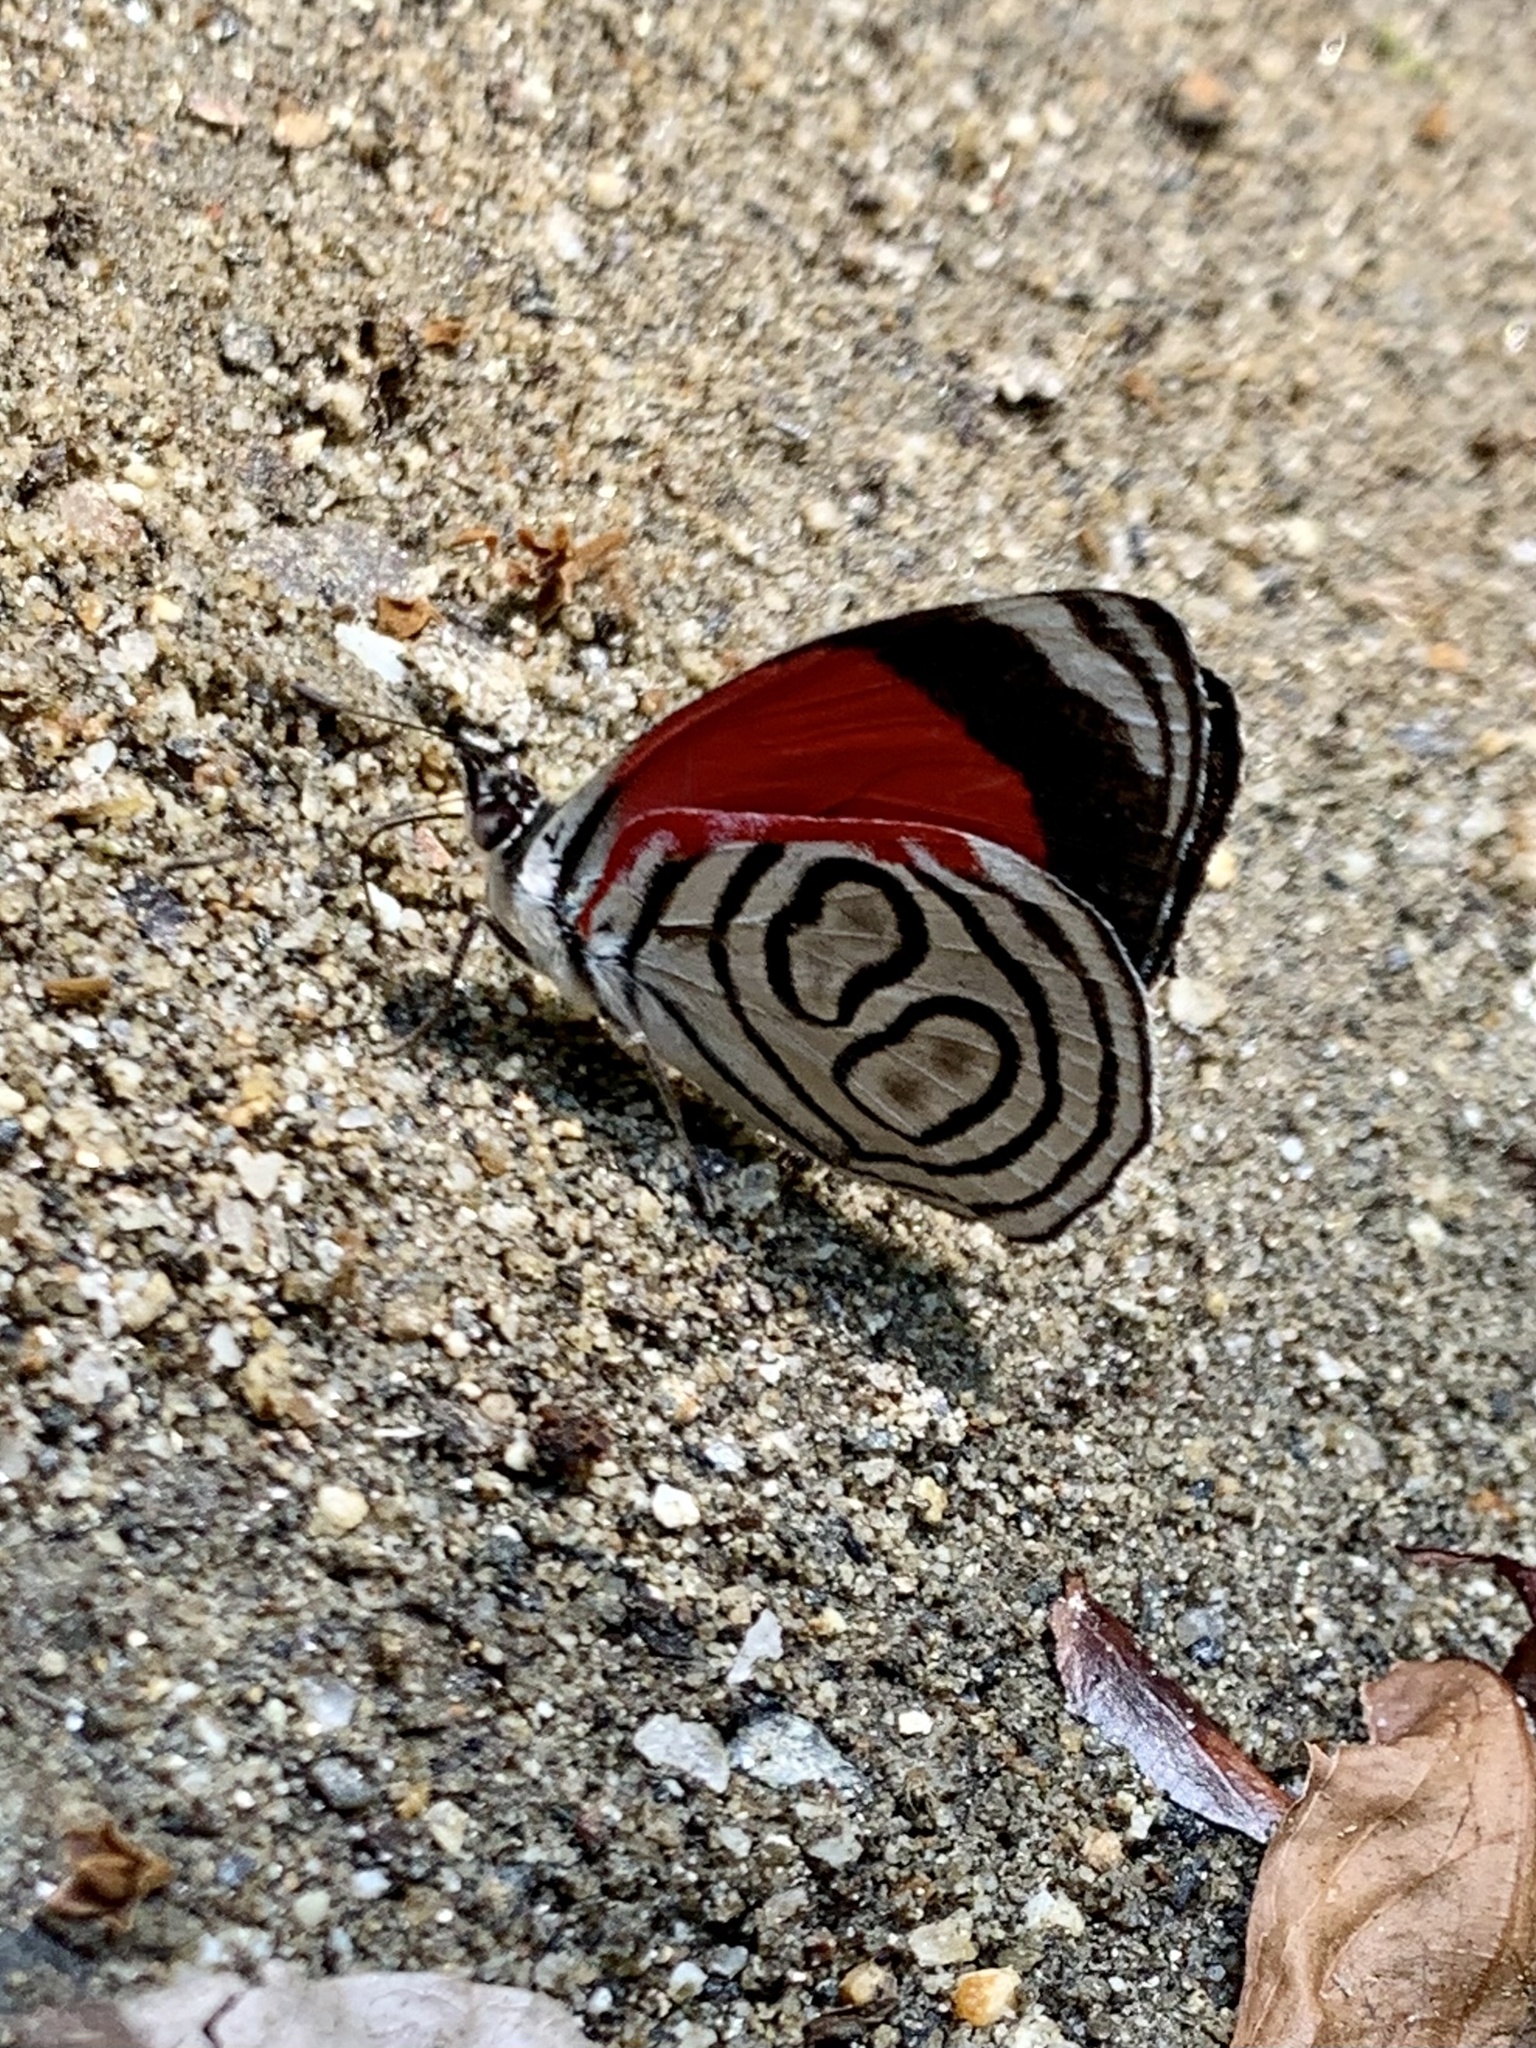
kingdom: Animalia
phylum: Arthropoda
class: Insecta
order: Lepidoptera
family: Nymphalidae
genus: Diaethria
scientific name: Diaethria gabaza
